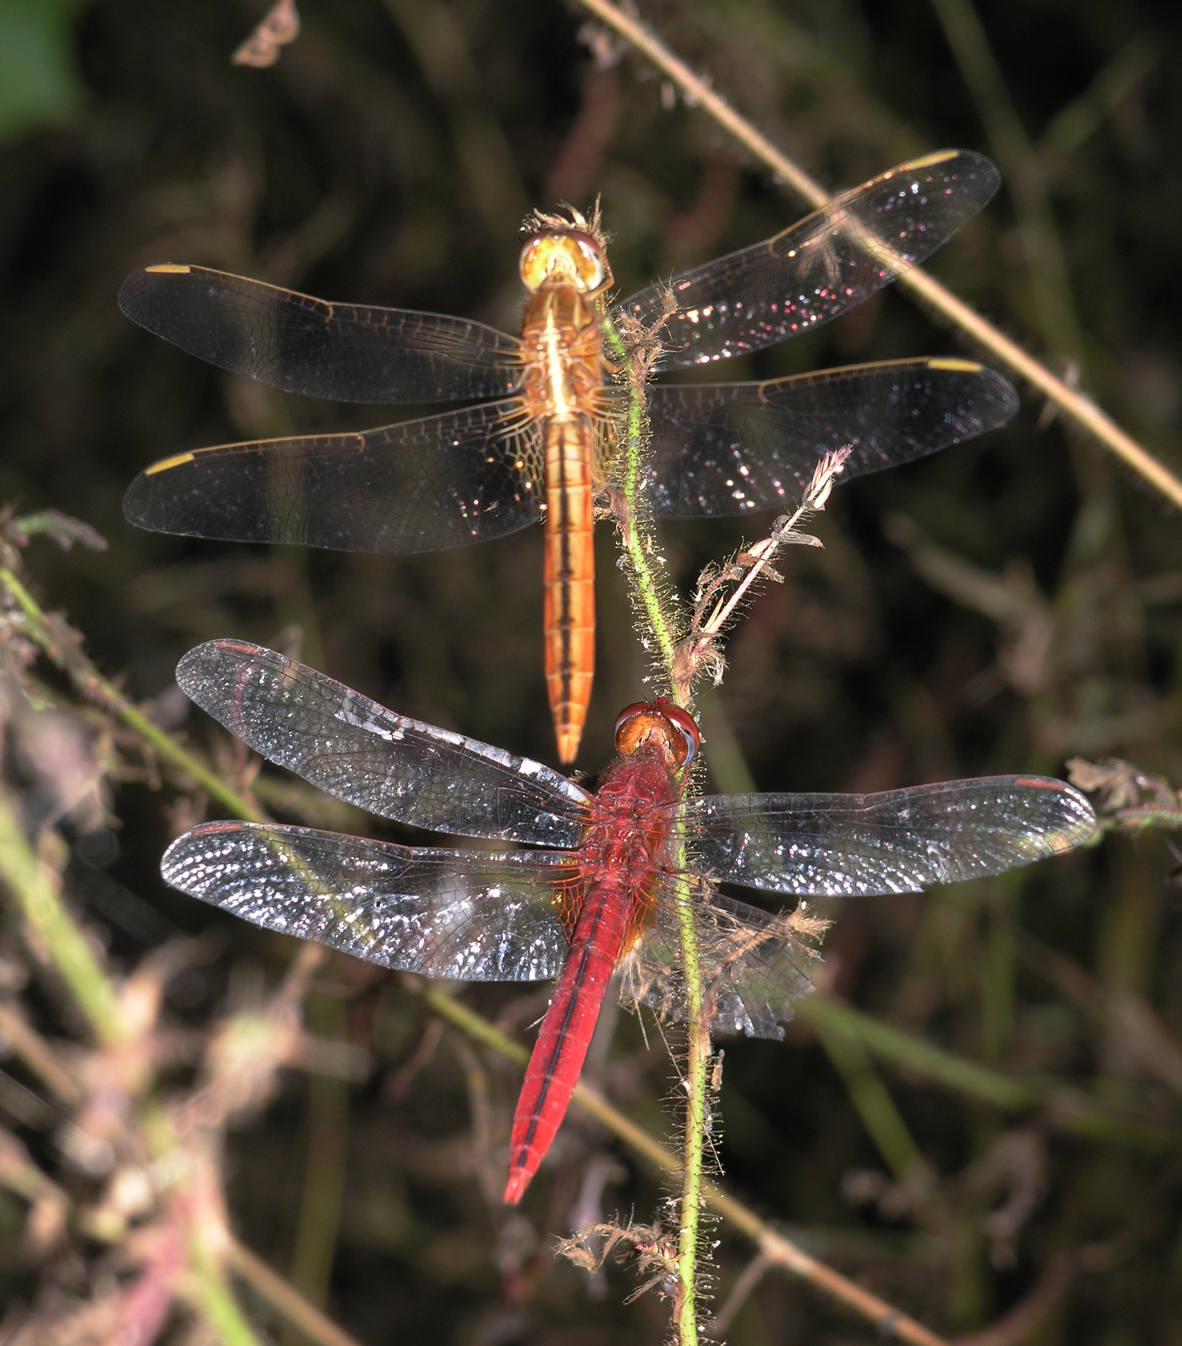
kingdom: Animalia
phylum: Arthropoda
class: Insecta
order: Odonata
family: Libellulidae
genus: Crocothemis
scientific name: Crocothemis servilia
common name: Scarlet skimmer
